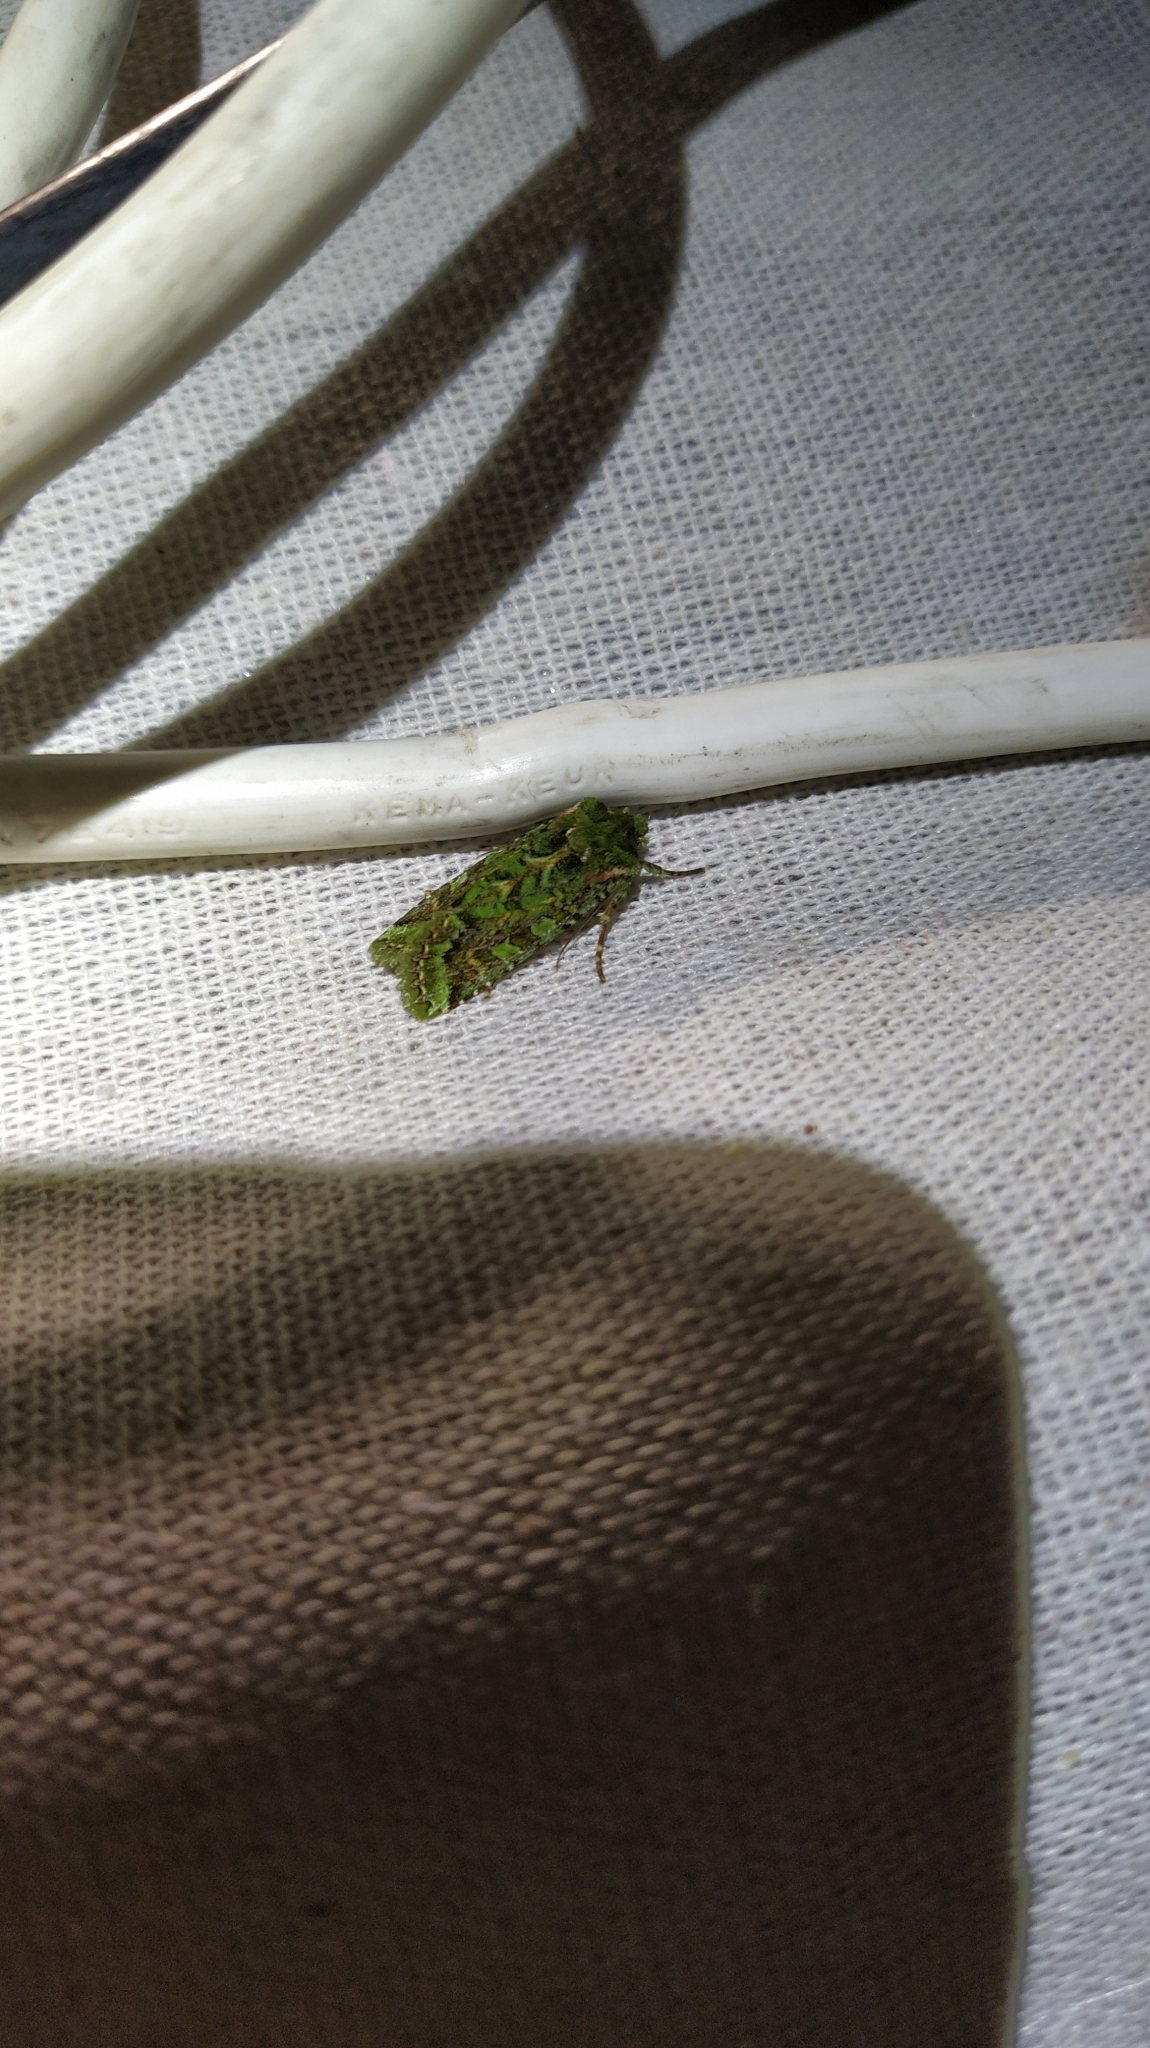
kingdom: Animalia
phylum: Arthropoda
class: Insecta
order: Lepidoptera
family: Noctuidae
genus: Feredayia
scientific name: Feredayia grammosa
